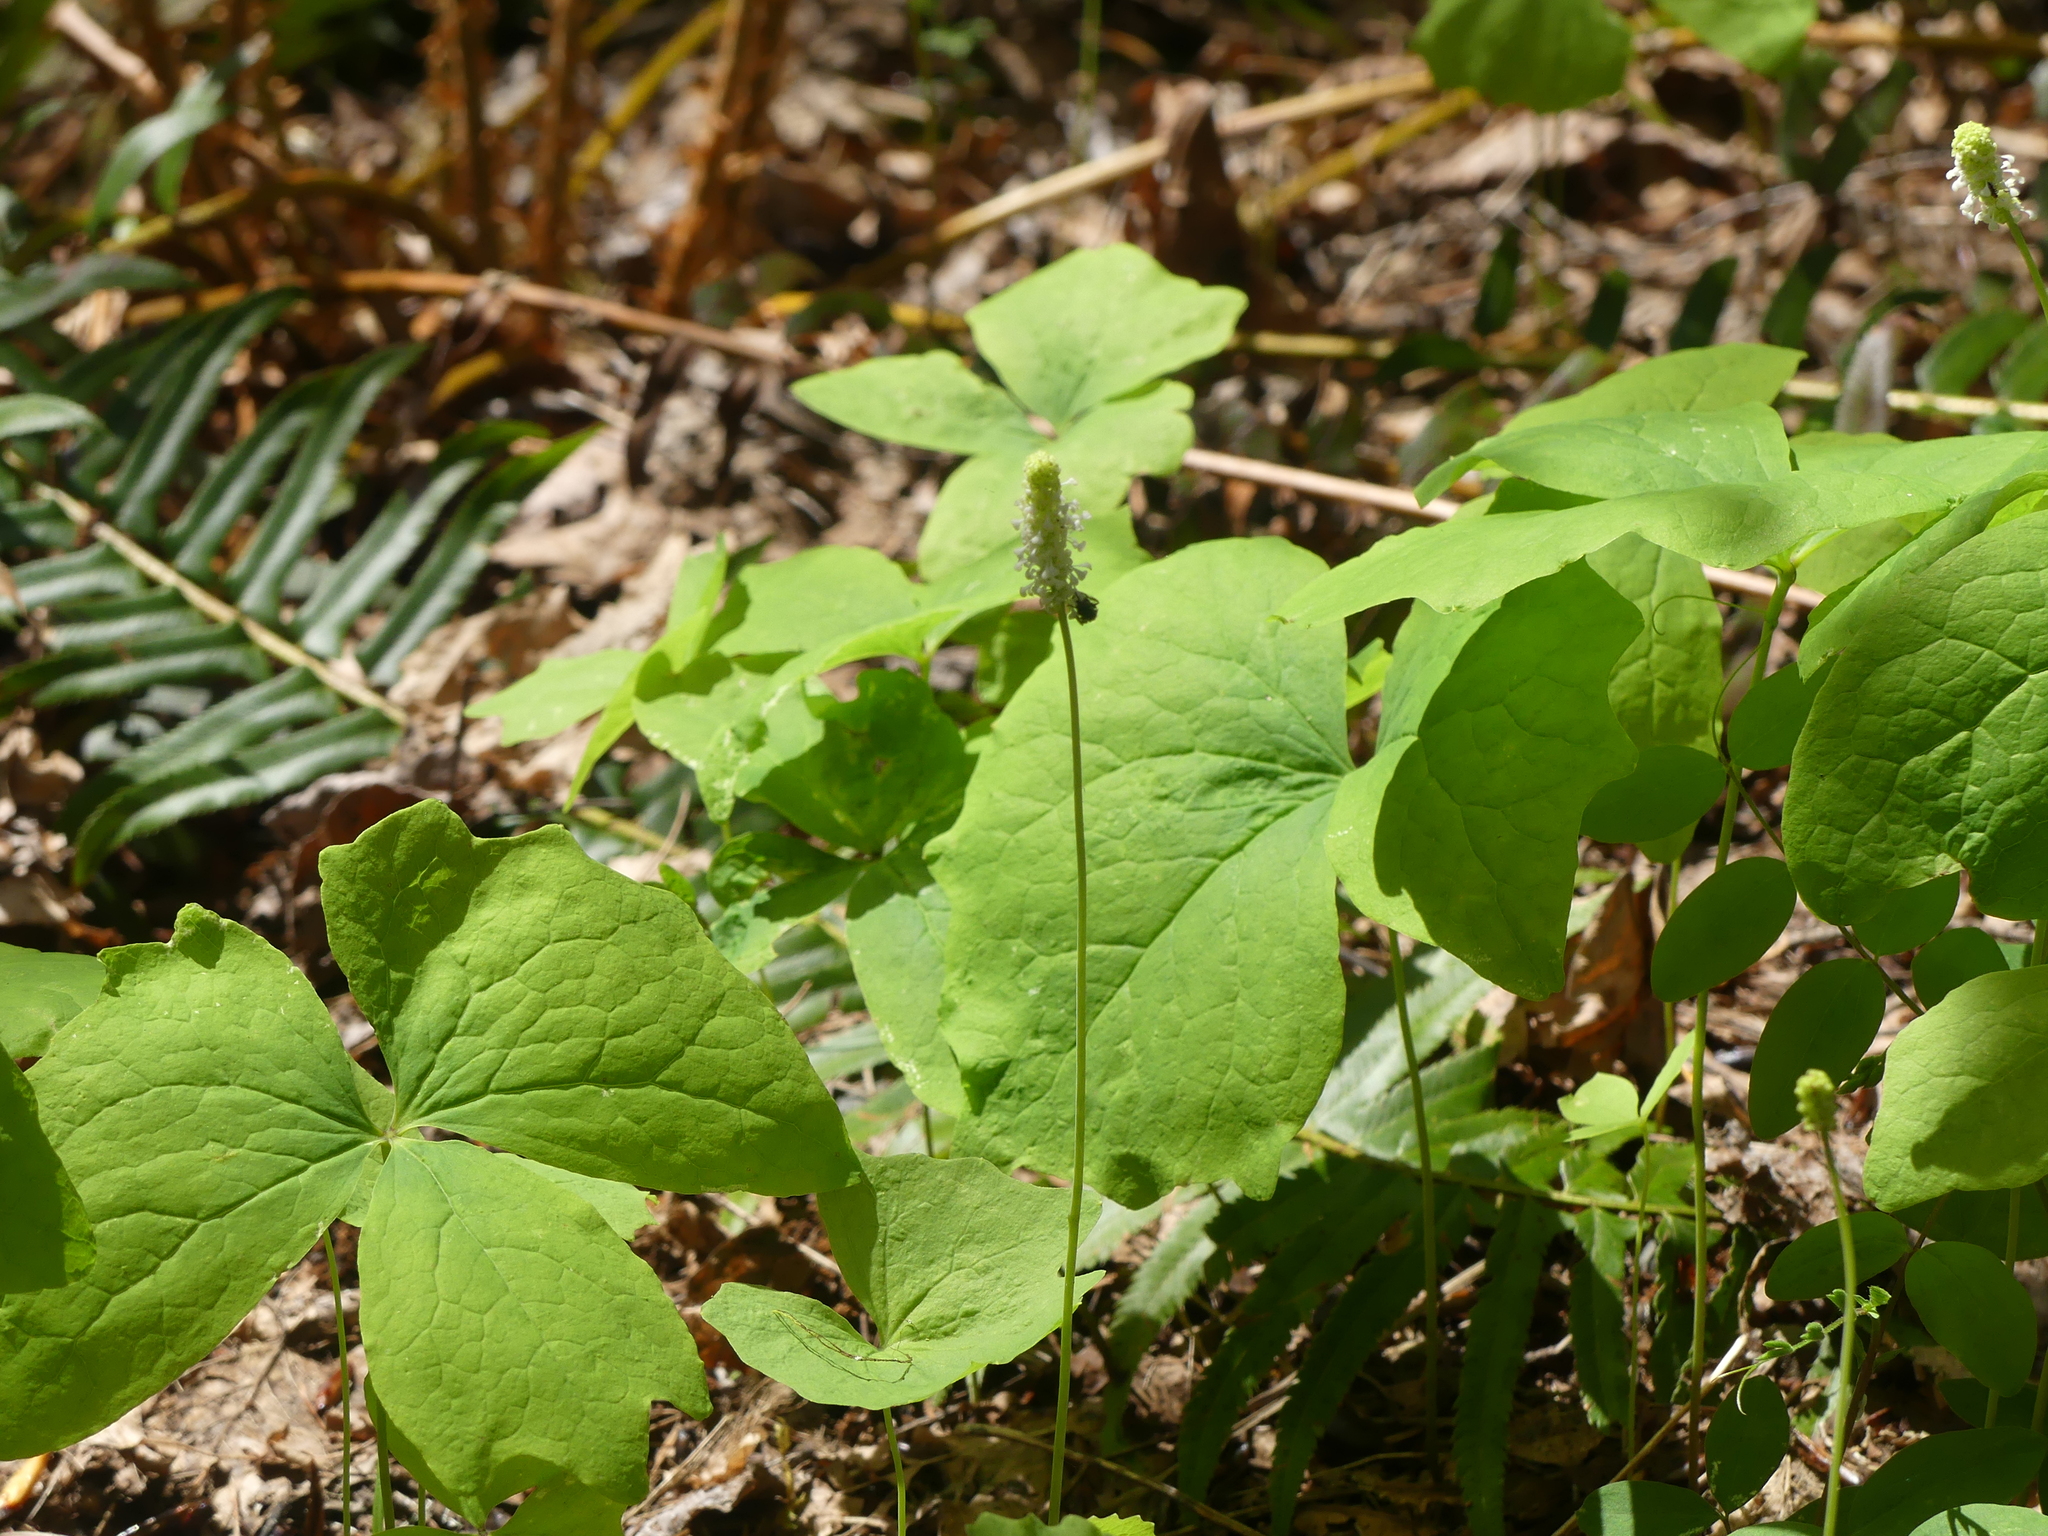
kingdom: Plantae
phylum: Tracheophyta
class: Magnoliopsida
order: Ranunculales
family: Berberidaceae
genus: Achlys
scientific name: Achlys triphylla
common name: Vanilla-leaf
